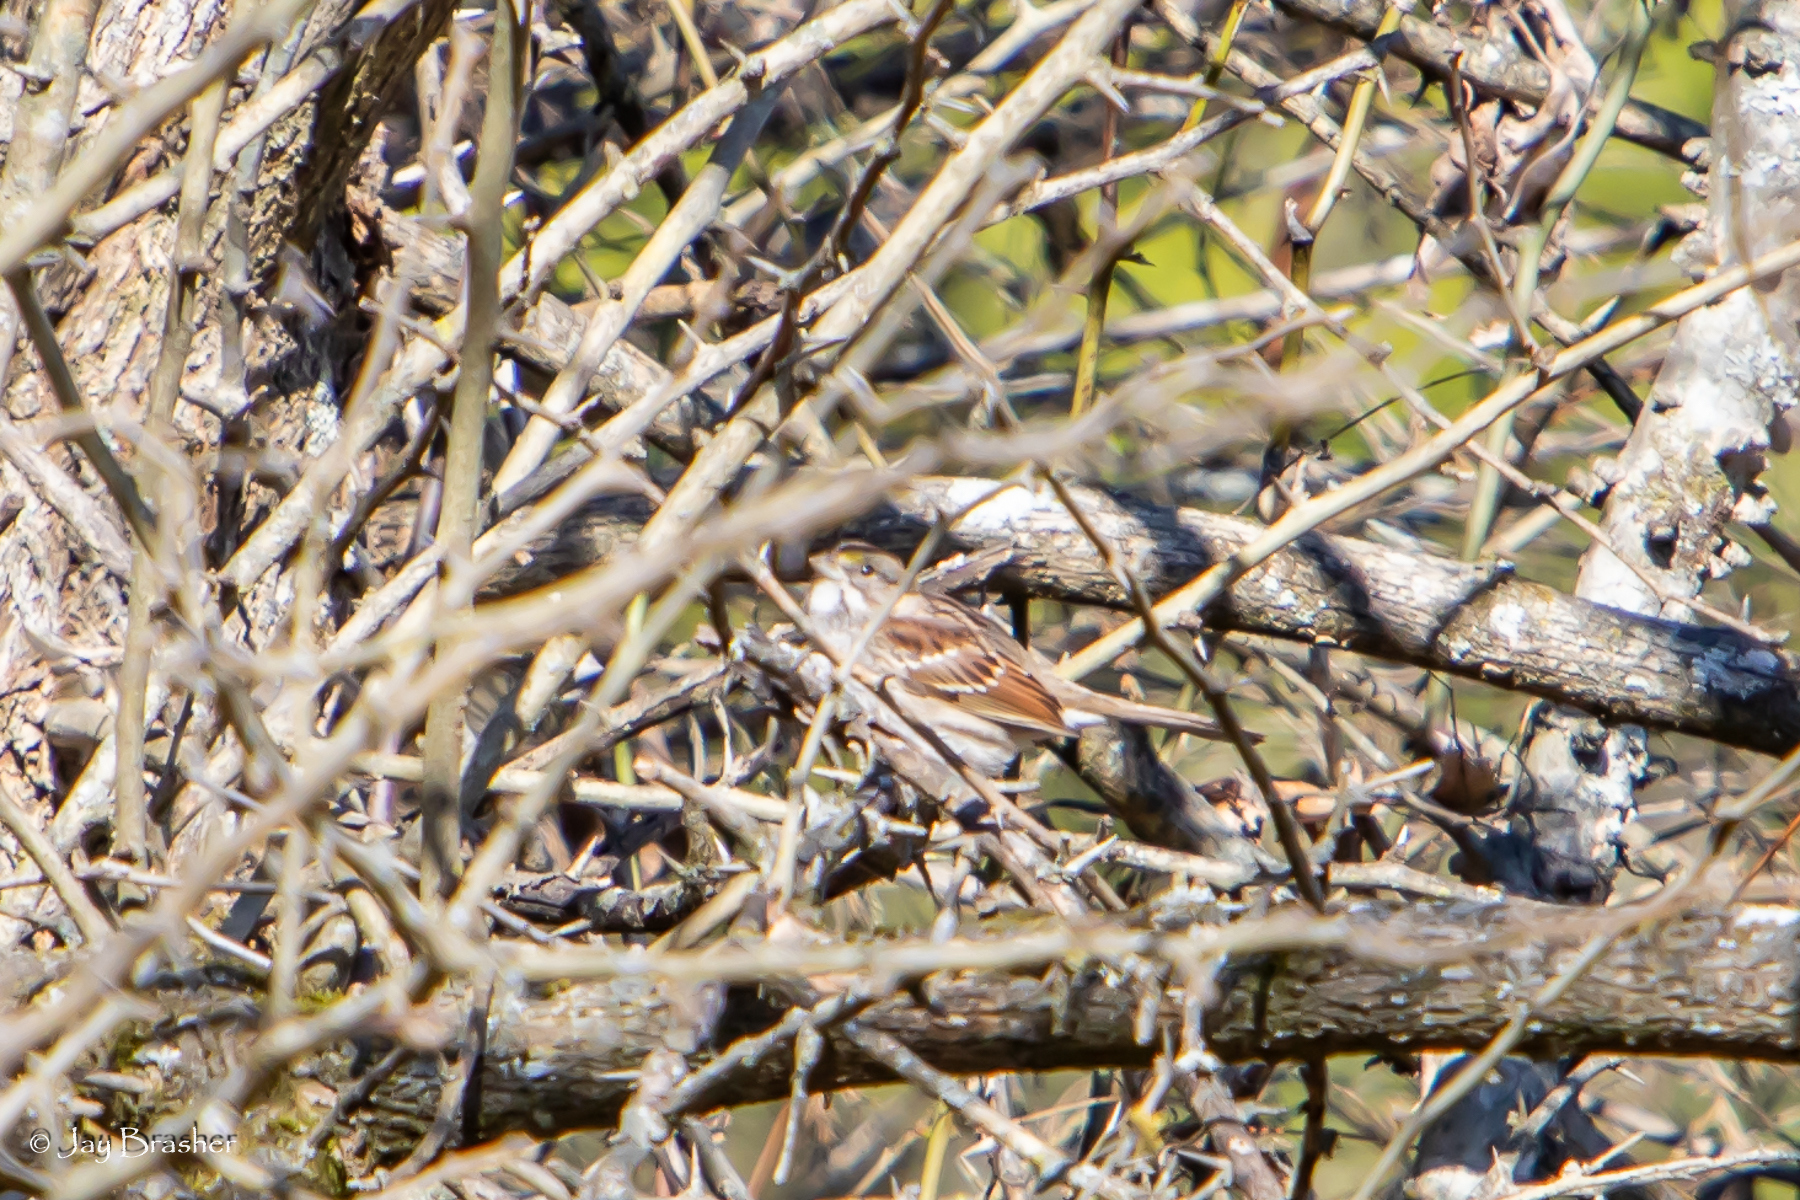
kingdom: Animalia
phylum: Chordata
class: Aves
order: Passeriformes
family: Passerellidae
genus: Zonotrichia
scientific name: Zonotrichia albicollis
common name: White-throated sparrow
